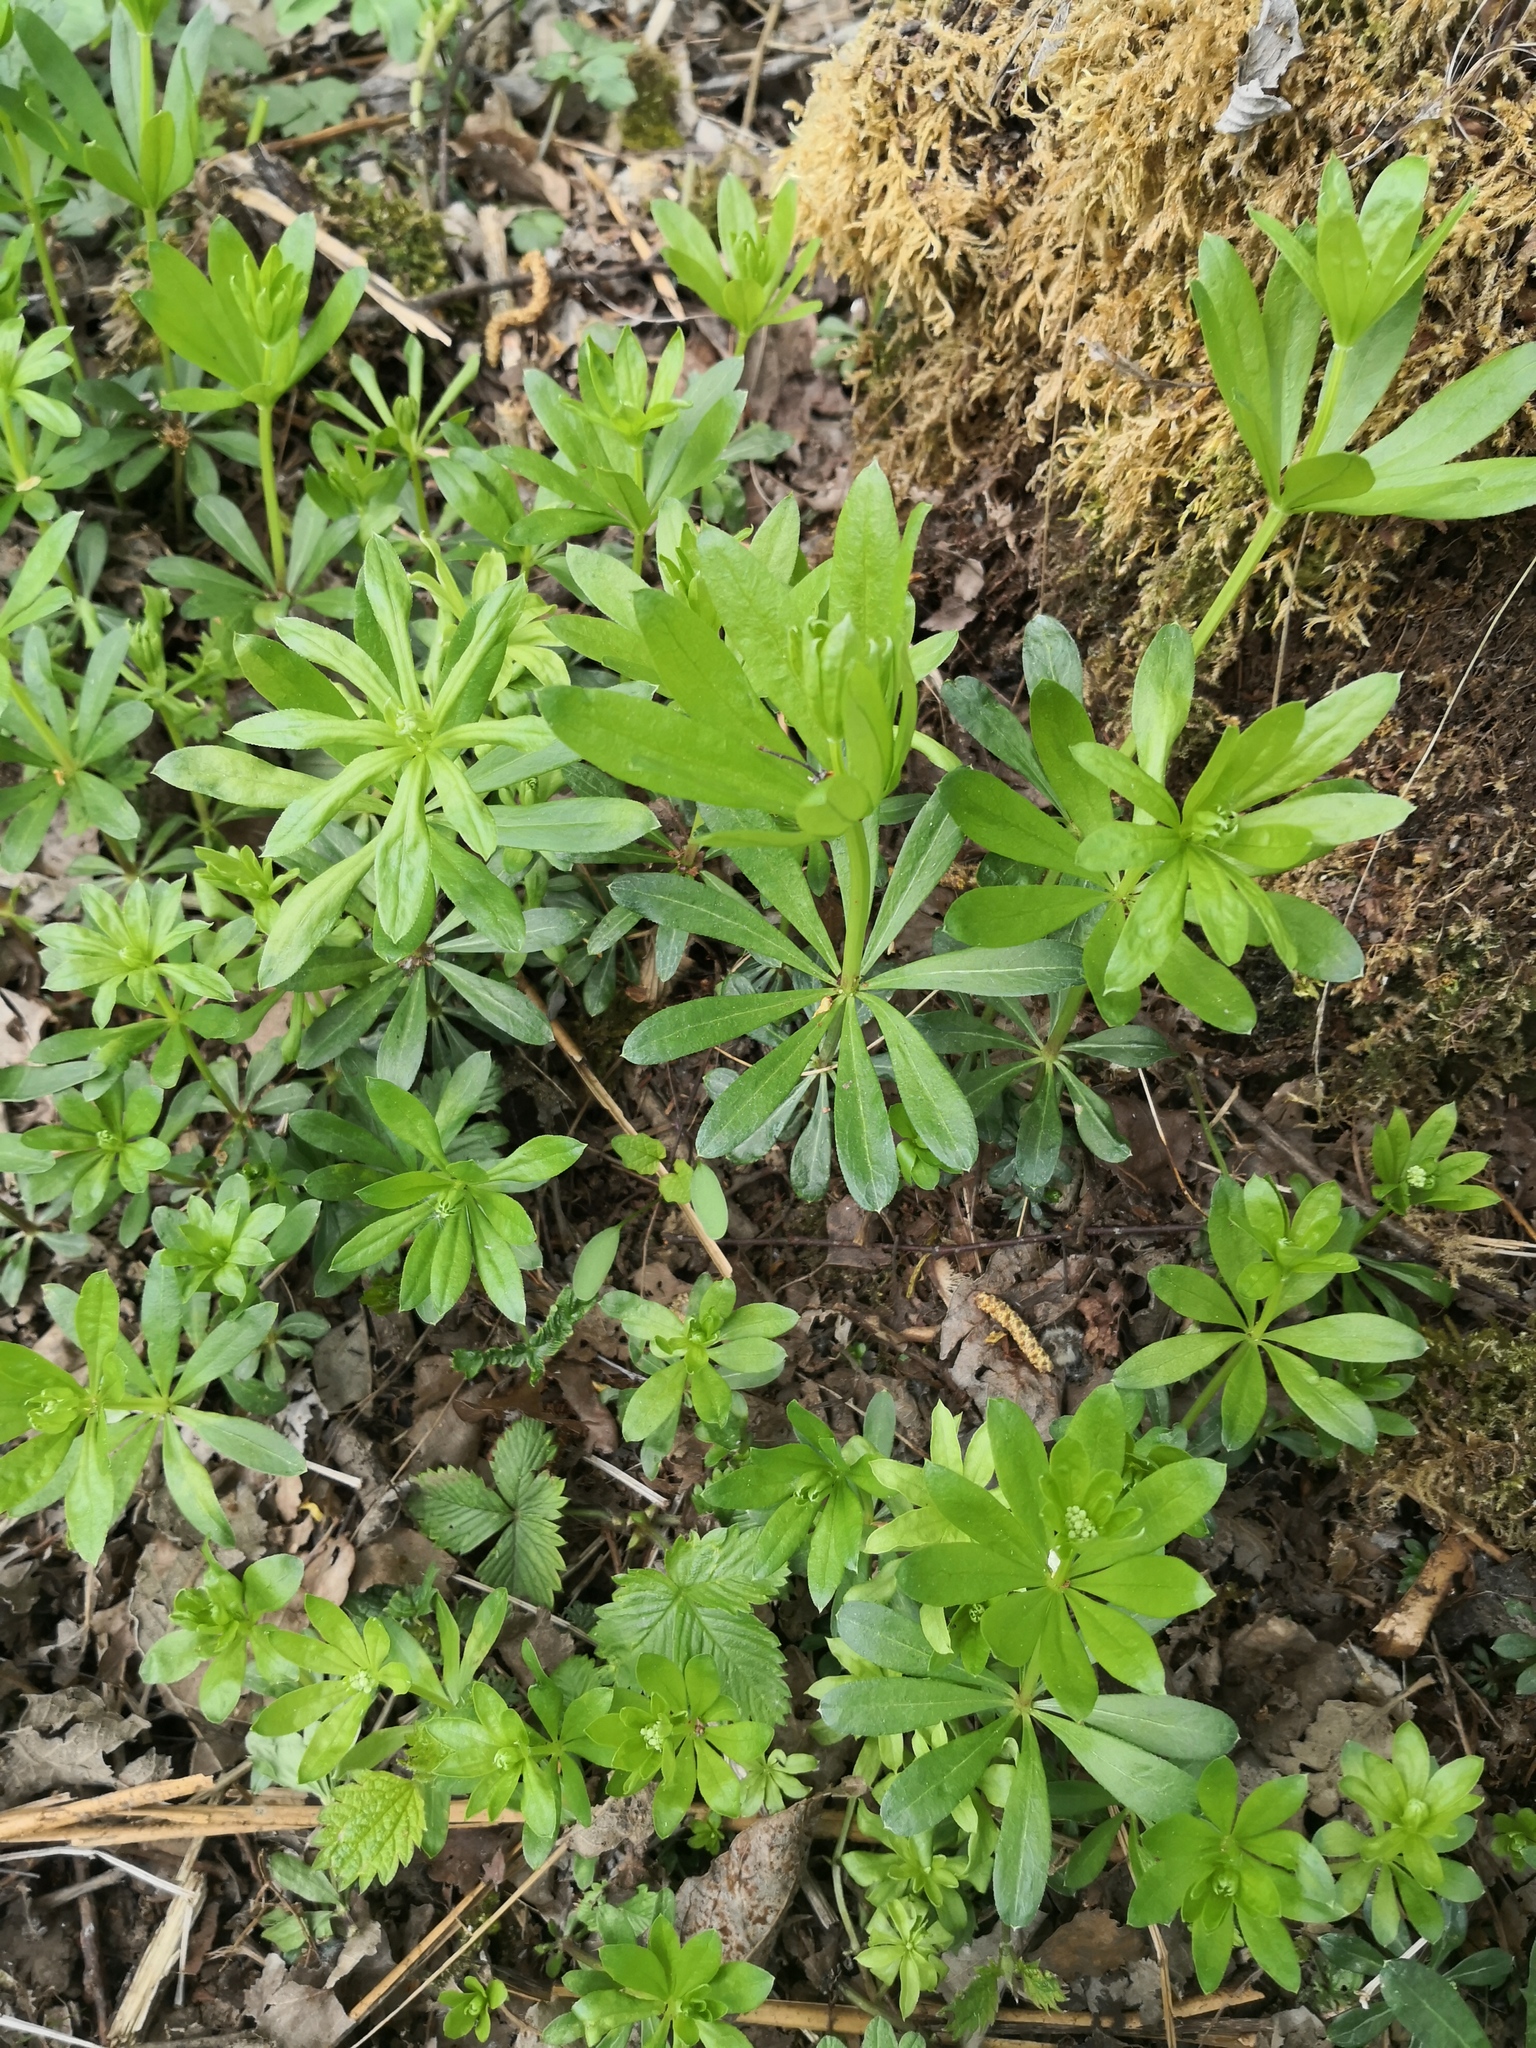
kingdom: Plantae
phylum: Tracheophyta
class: Magnoliopsida
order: Gentianales
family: Rubiaceae
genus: Galium
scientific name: Galium odoratum
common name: Sweet woodruff
